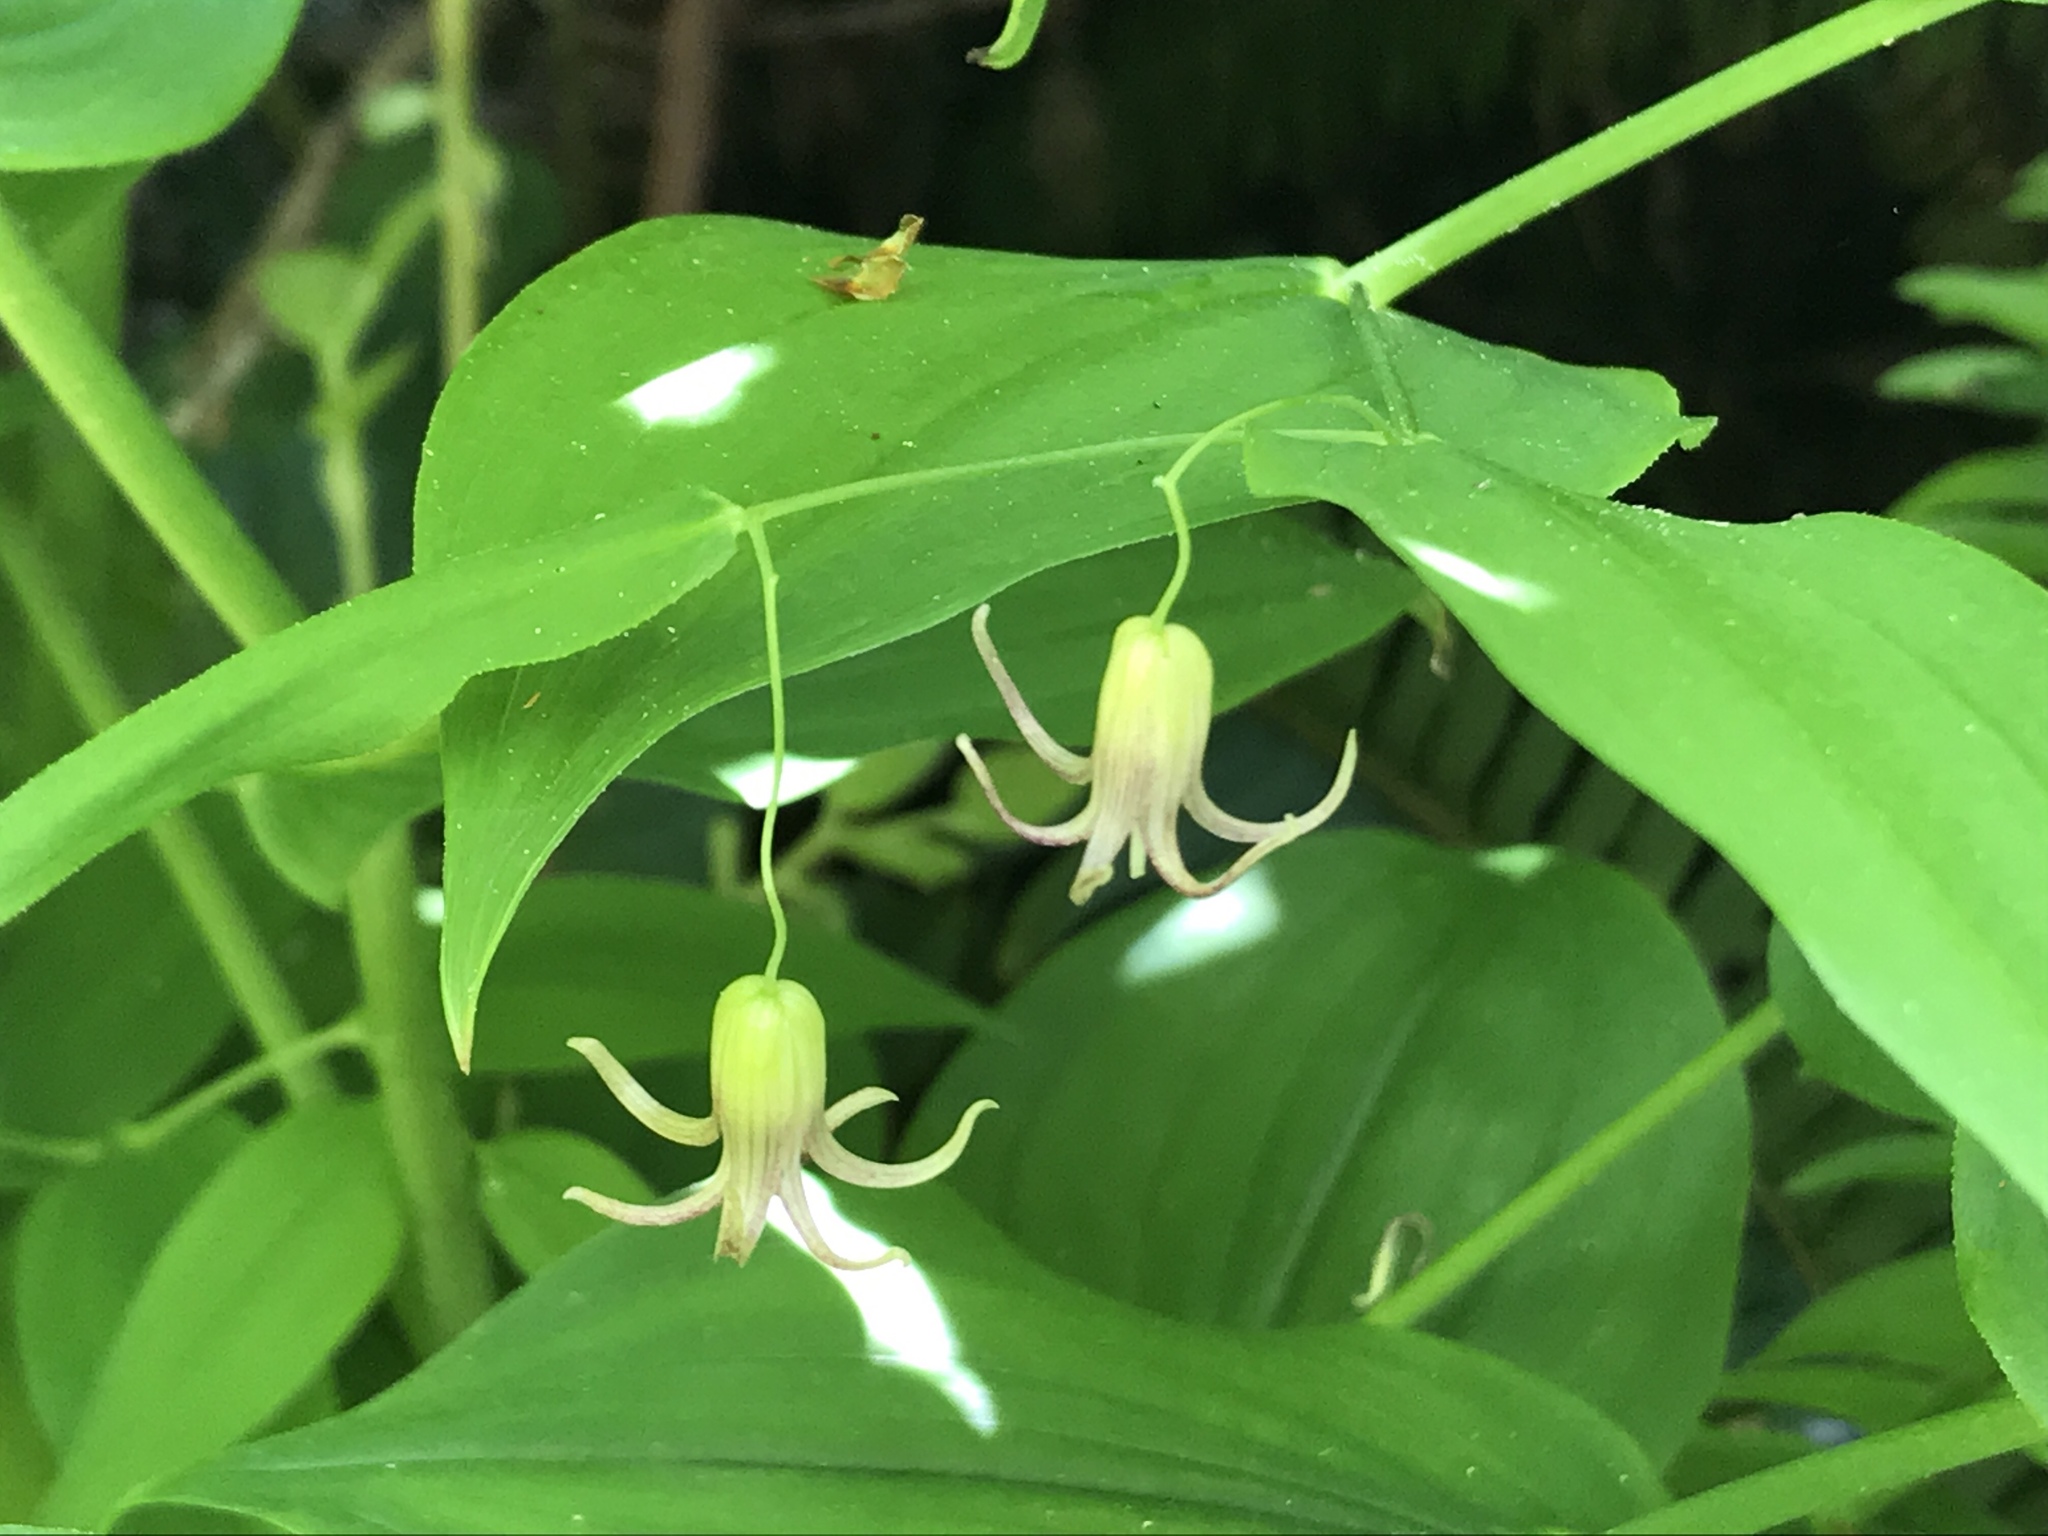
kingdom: Plantae
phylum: Tracheophyta
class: Liliopsida
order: Liliales
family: Liliaceae
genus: Streptopus
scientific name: Streptopus amplexifolius
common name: Clasp twisted stalk
